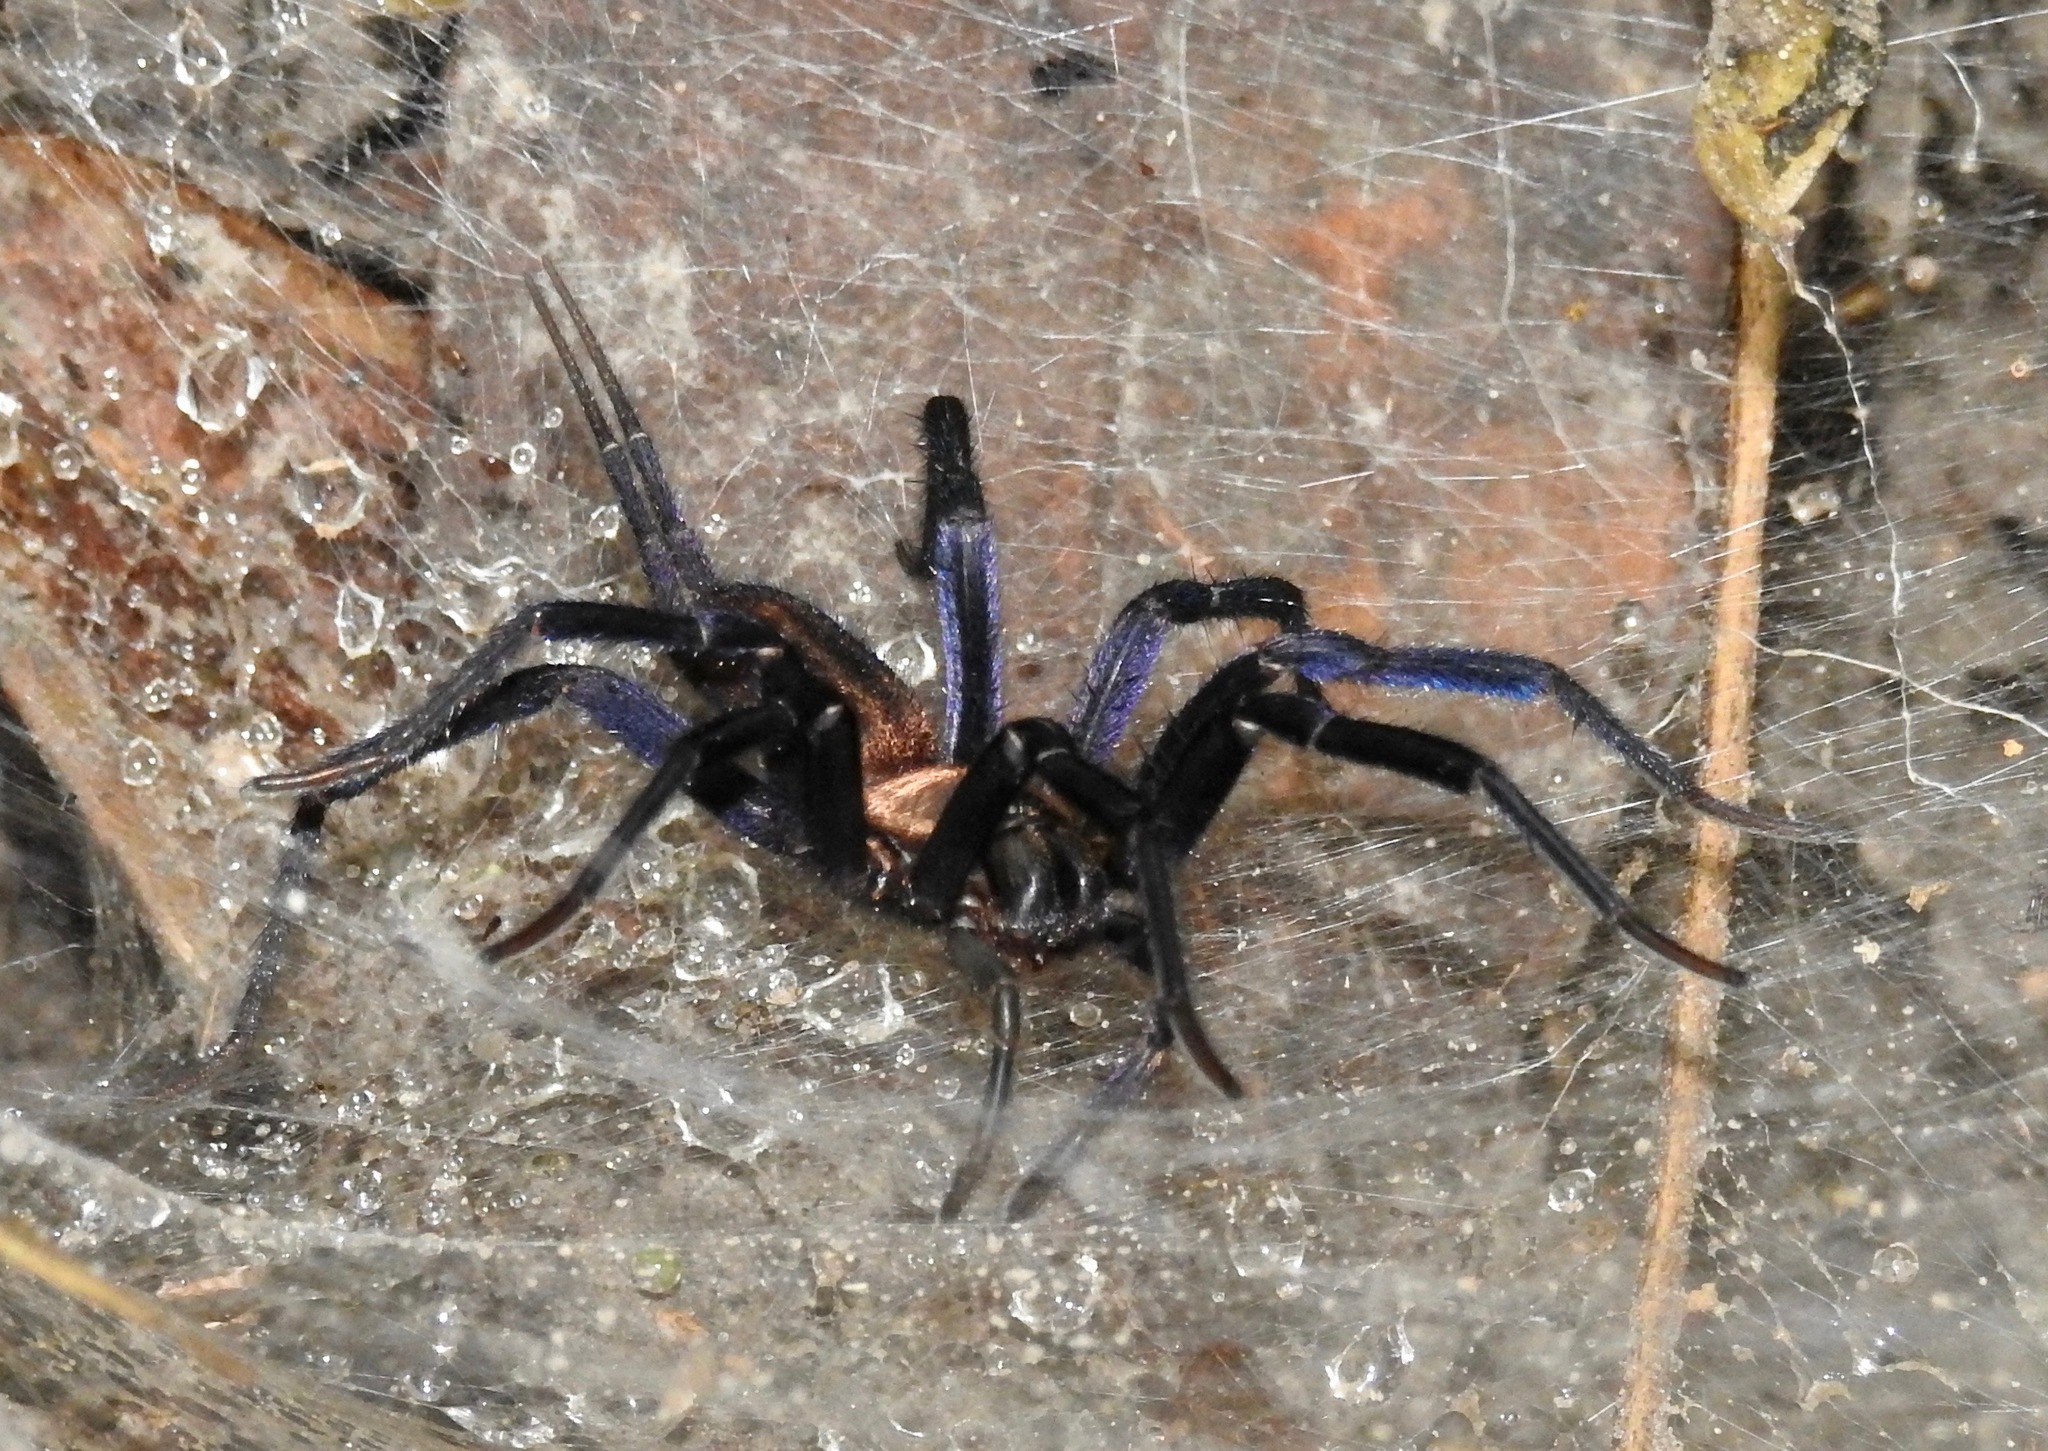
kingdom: Animalia
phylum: Arthropoda
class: Arachnida
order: Araneae
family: Dipluridae
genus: Linothele
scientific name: Linothele sericata
